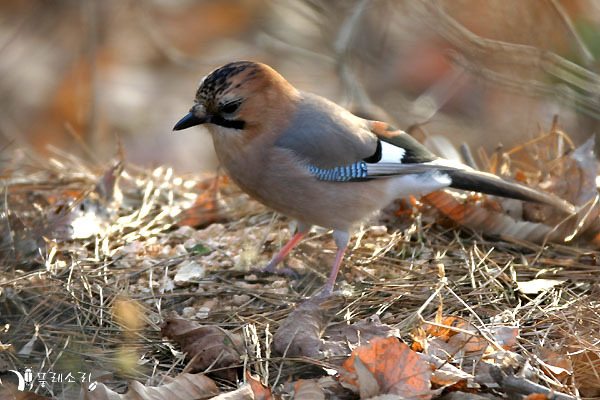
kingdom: Animalia
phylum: Chordata
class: Aves
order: Passeriformes
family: Corvidae
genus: Garrulus
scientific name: Garrulus glandarius
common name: Eurasian jay
